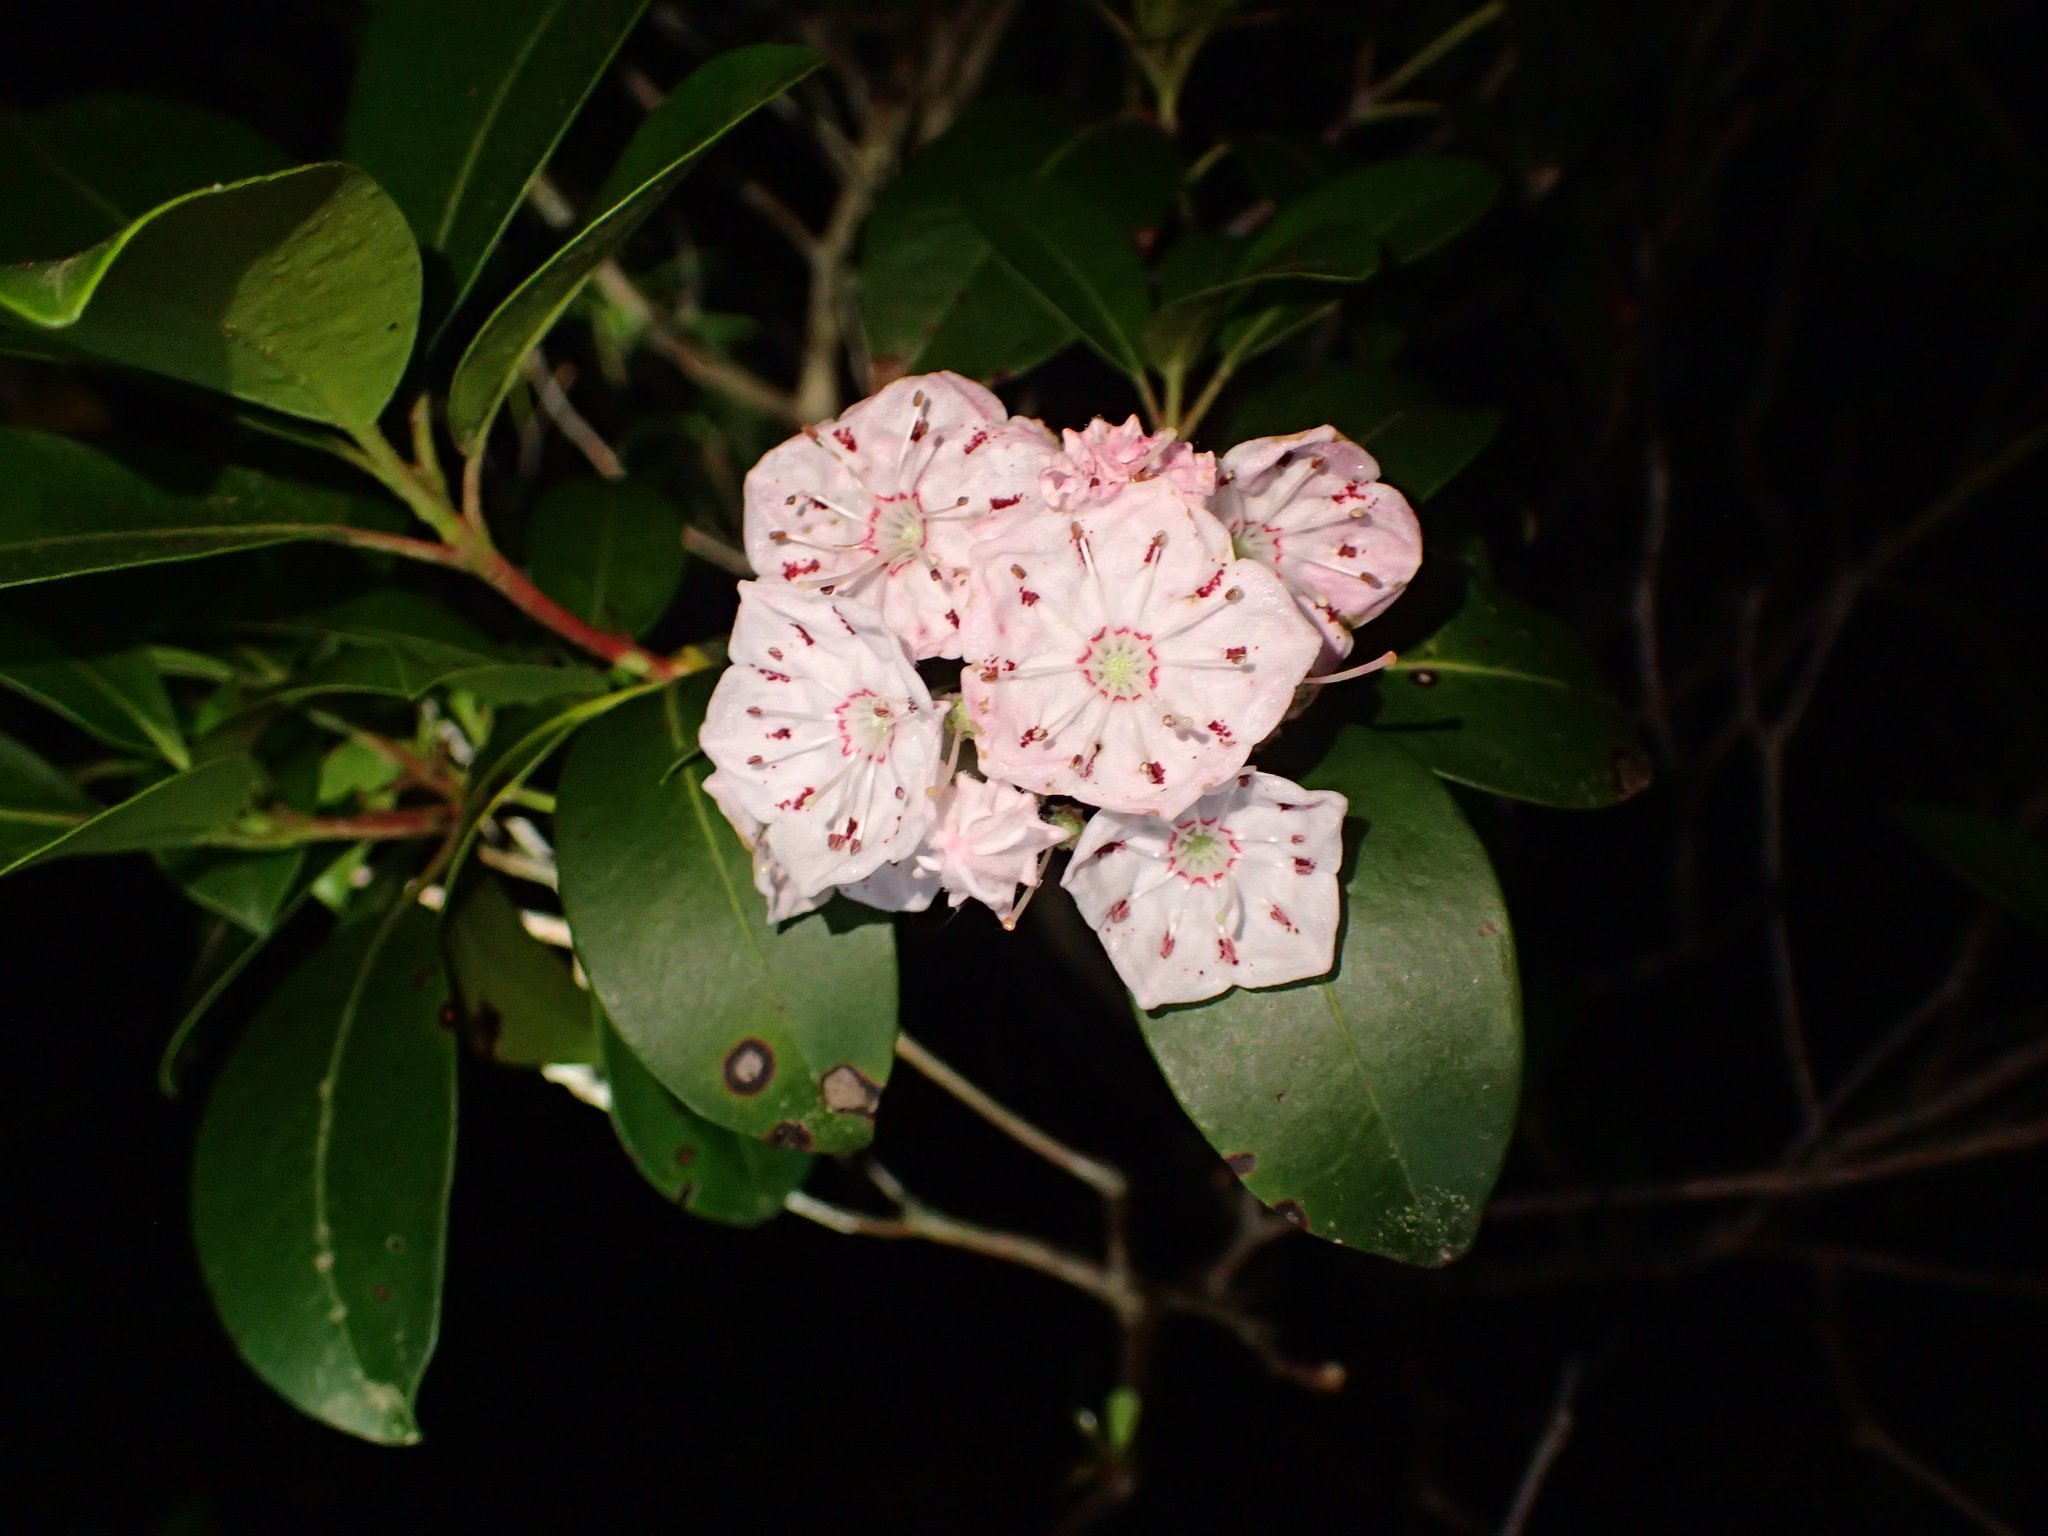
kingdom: Plantae
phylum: Tracheophyta
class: Magnoliopsida
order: Ericales
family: Ericaceae
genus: Kalmia
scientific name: Kalmia latifolia
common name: Mountain-laurel
